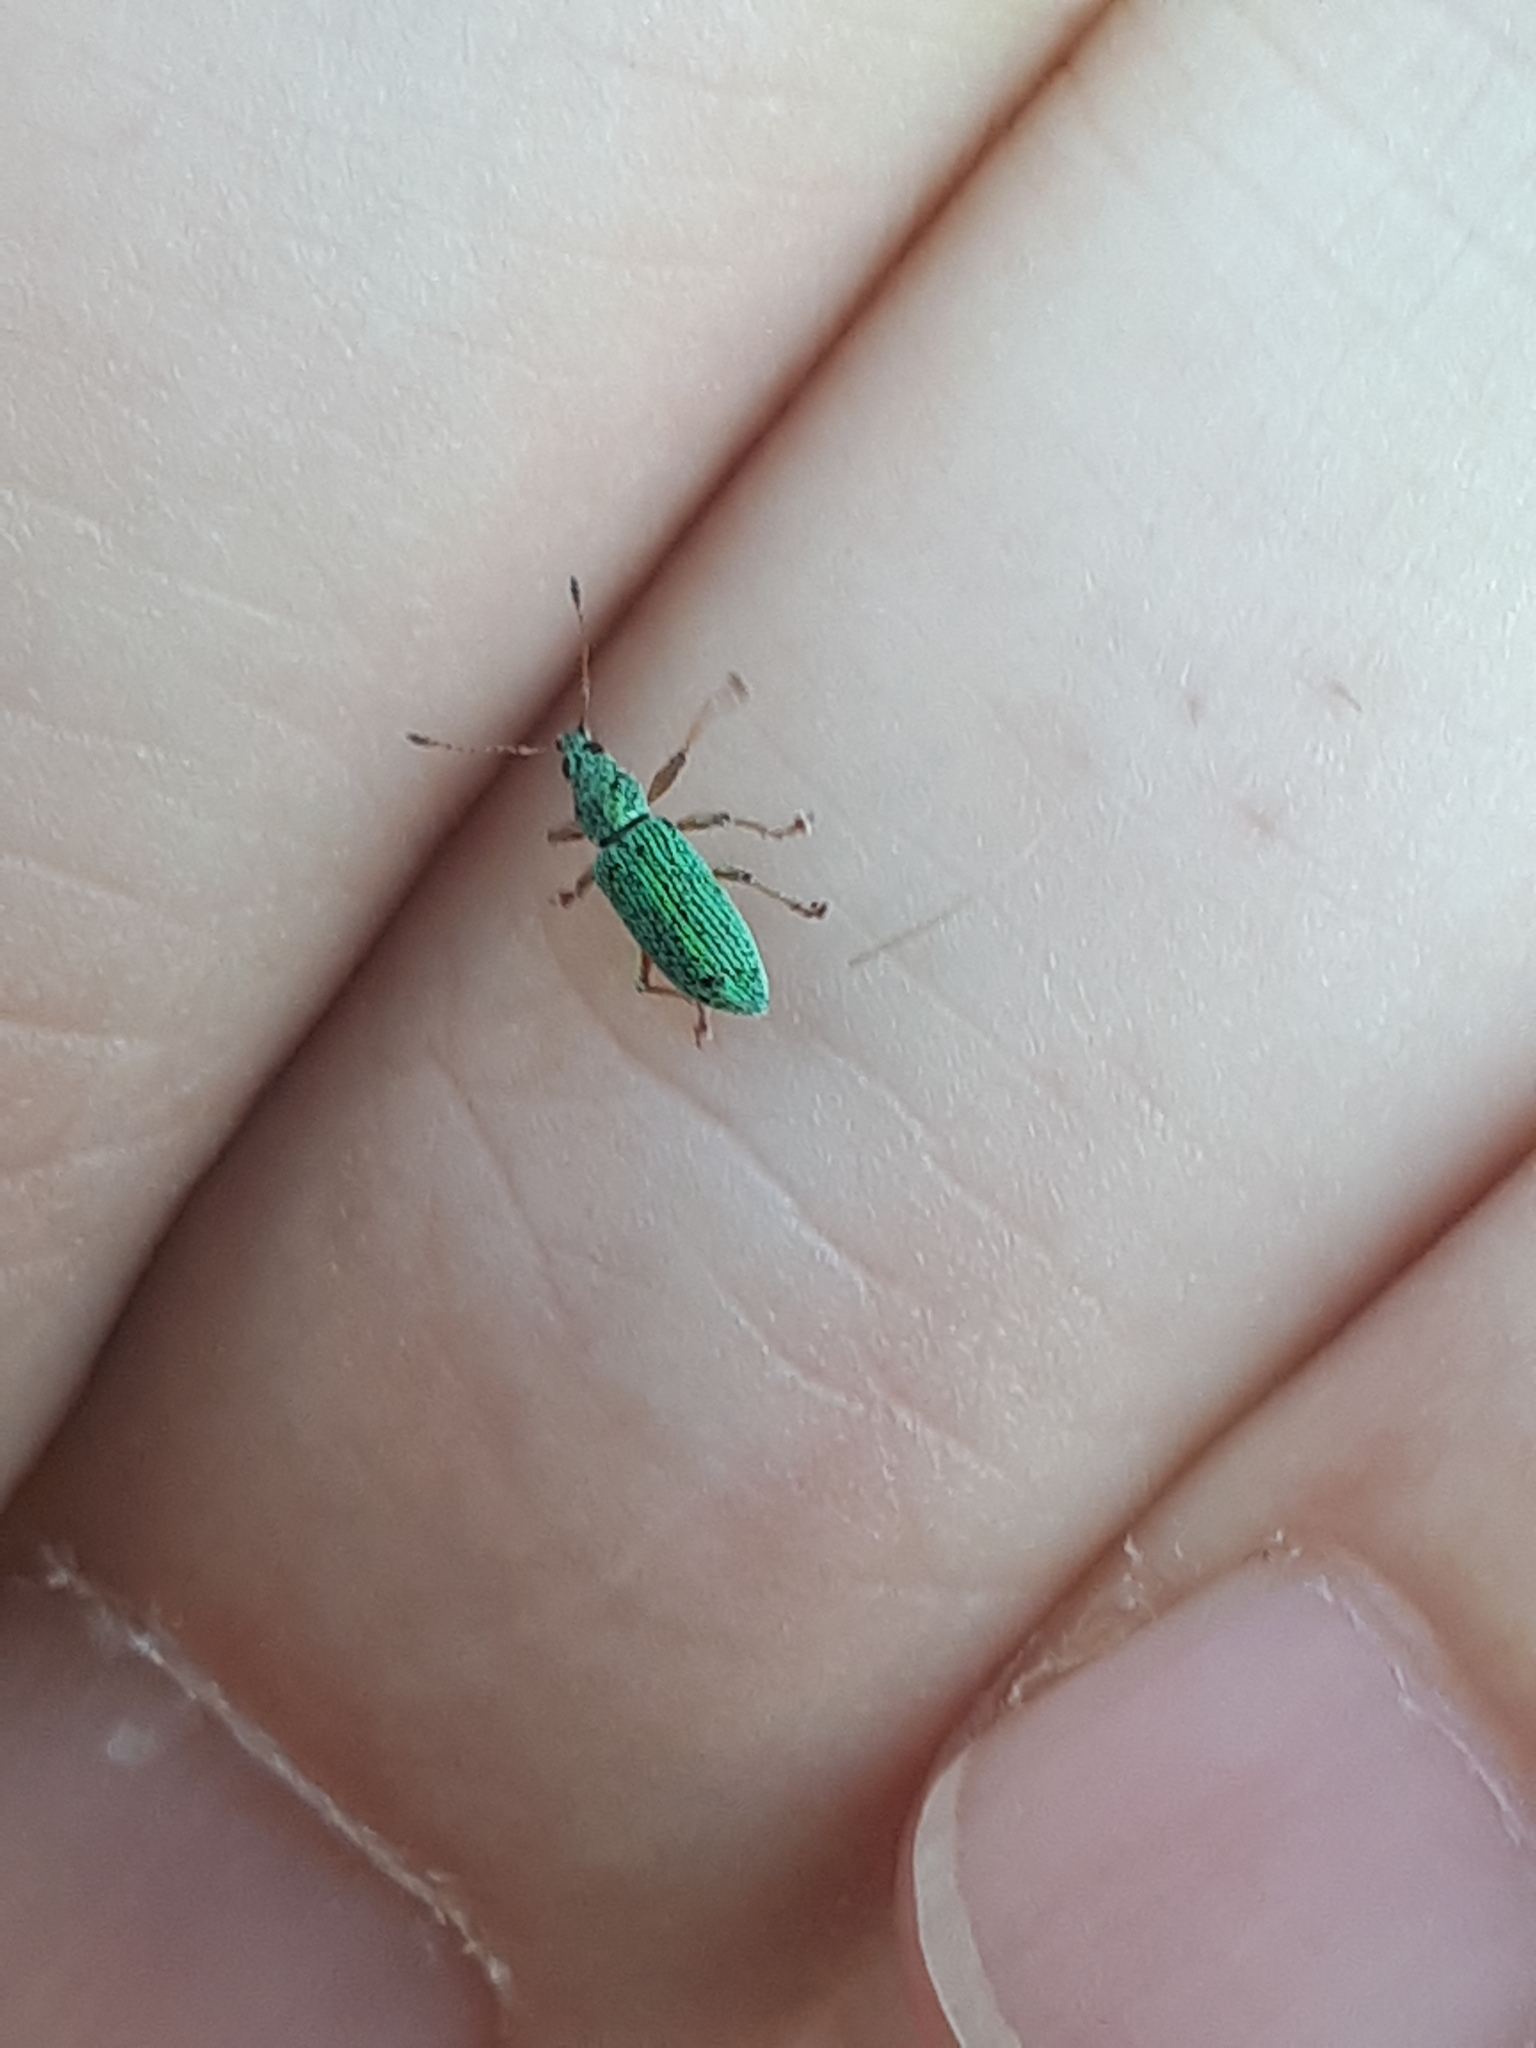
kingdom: Animalia
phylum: Arthropoda
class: Insecta
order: Coleoptera
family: Curculionidae
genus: Polydrusus
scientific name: Polydrusus formosus
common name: Weevil
